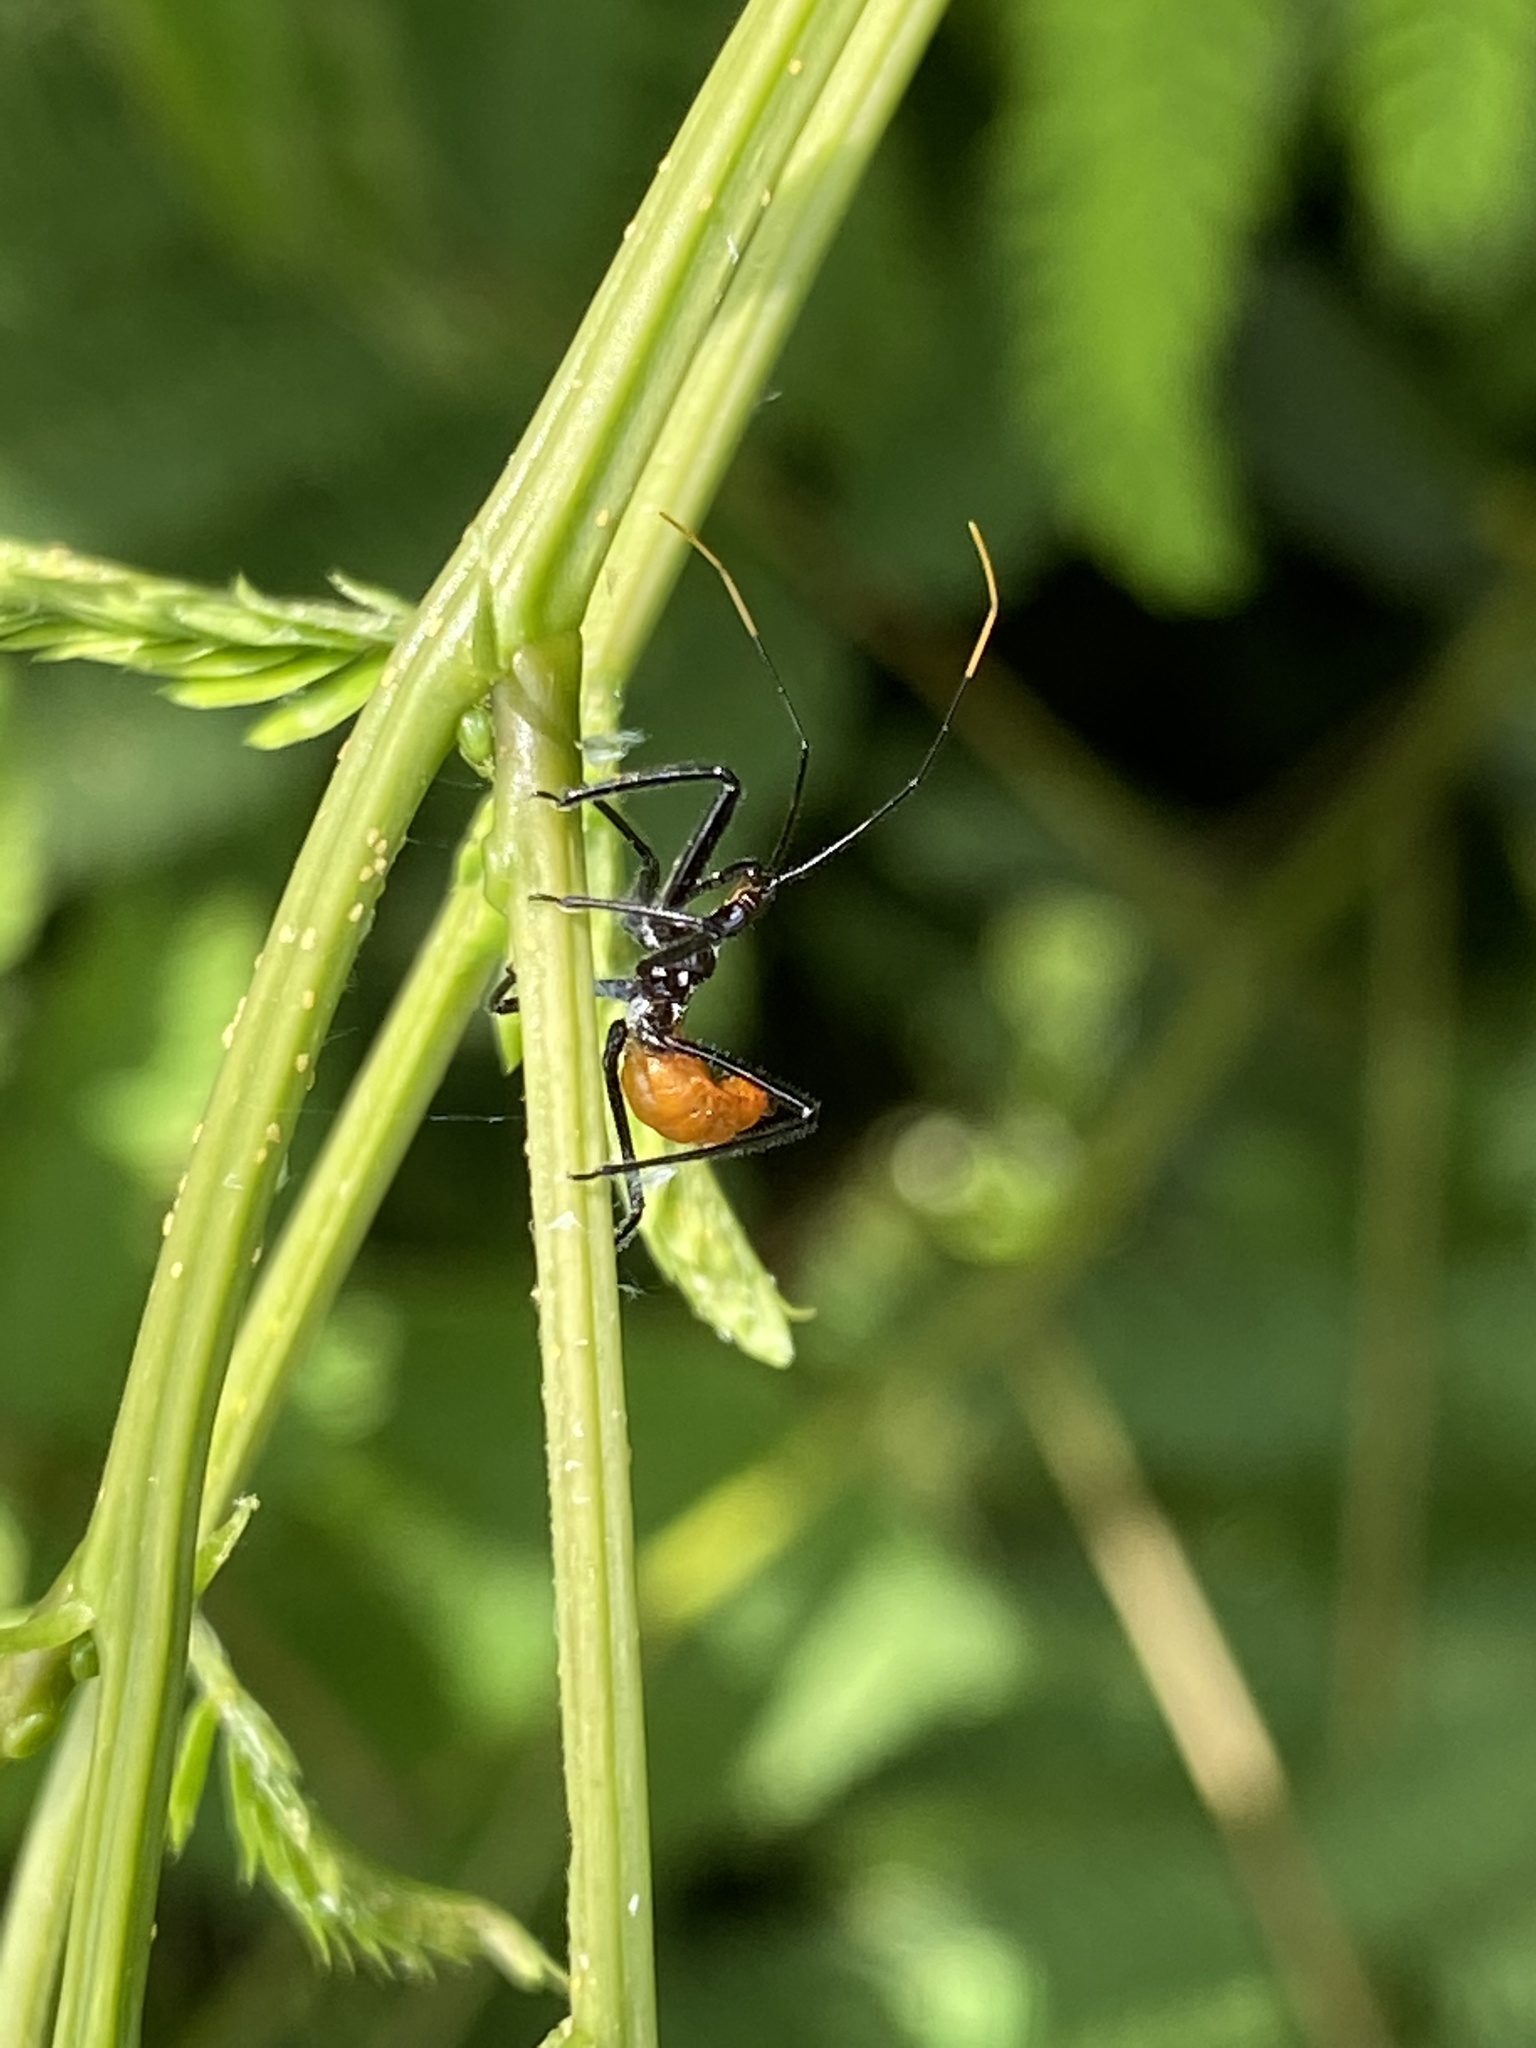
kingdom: Animalia
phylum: Arthropoda
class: Insecta
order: Hemiptera
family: Reduviidae
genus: Arilus
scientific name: Arilus cristatus
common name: North american wheel bug
